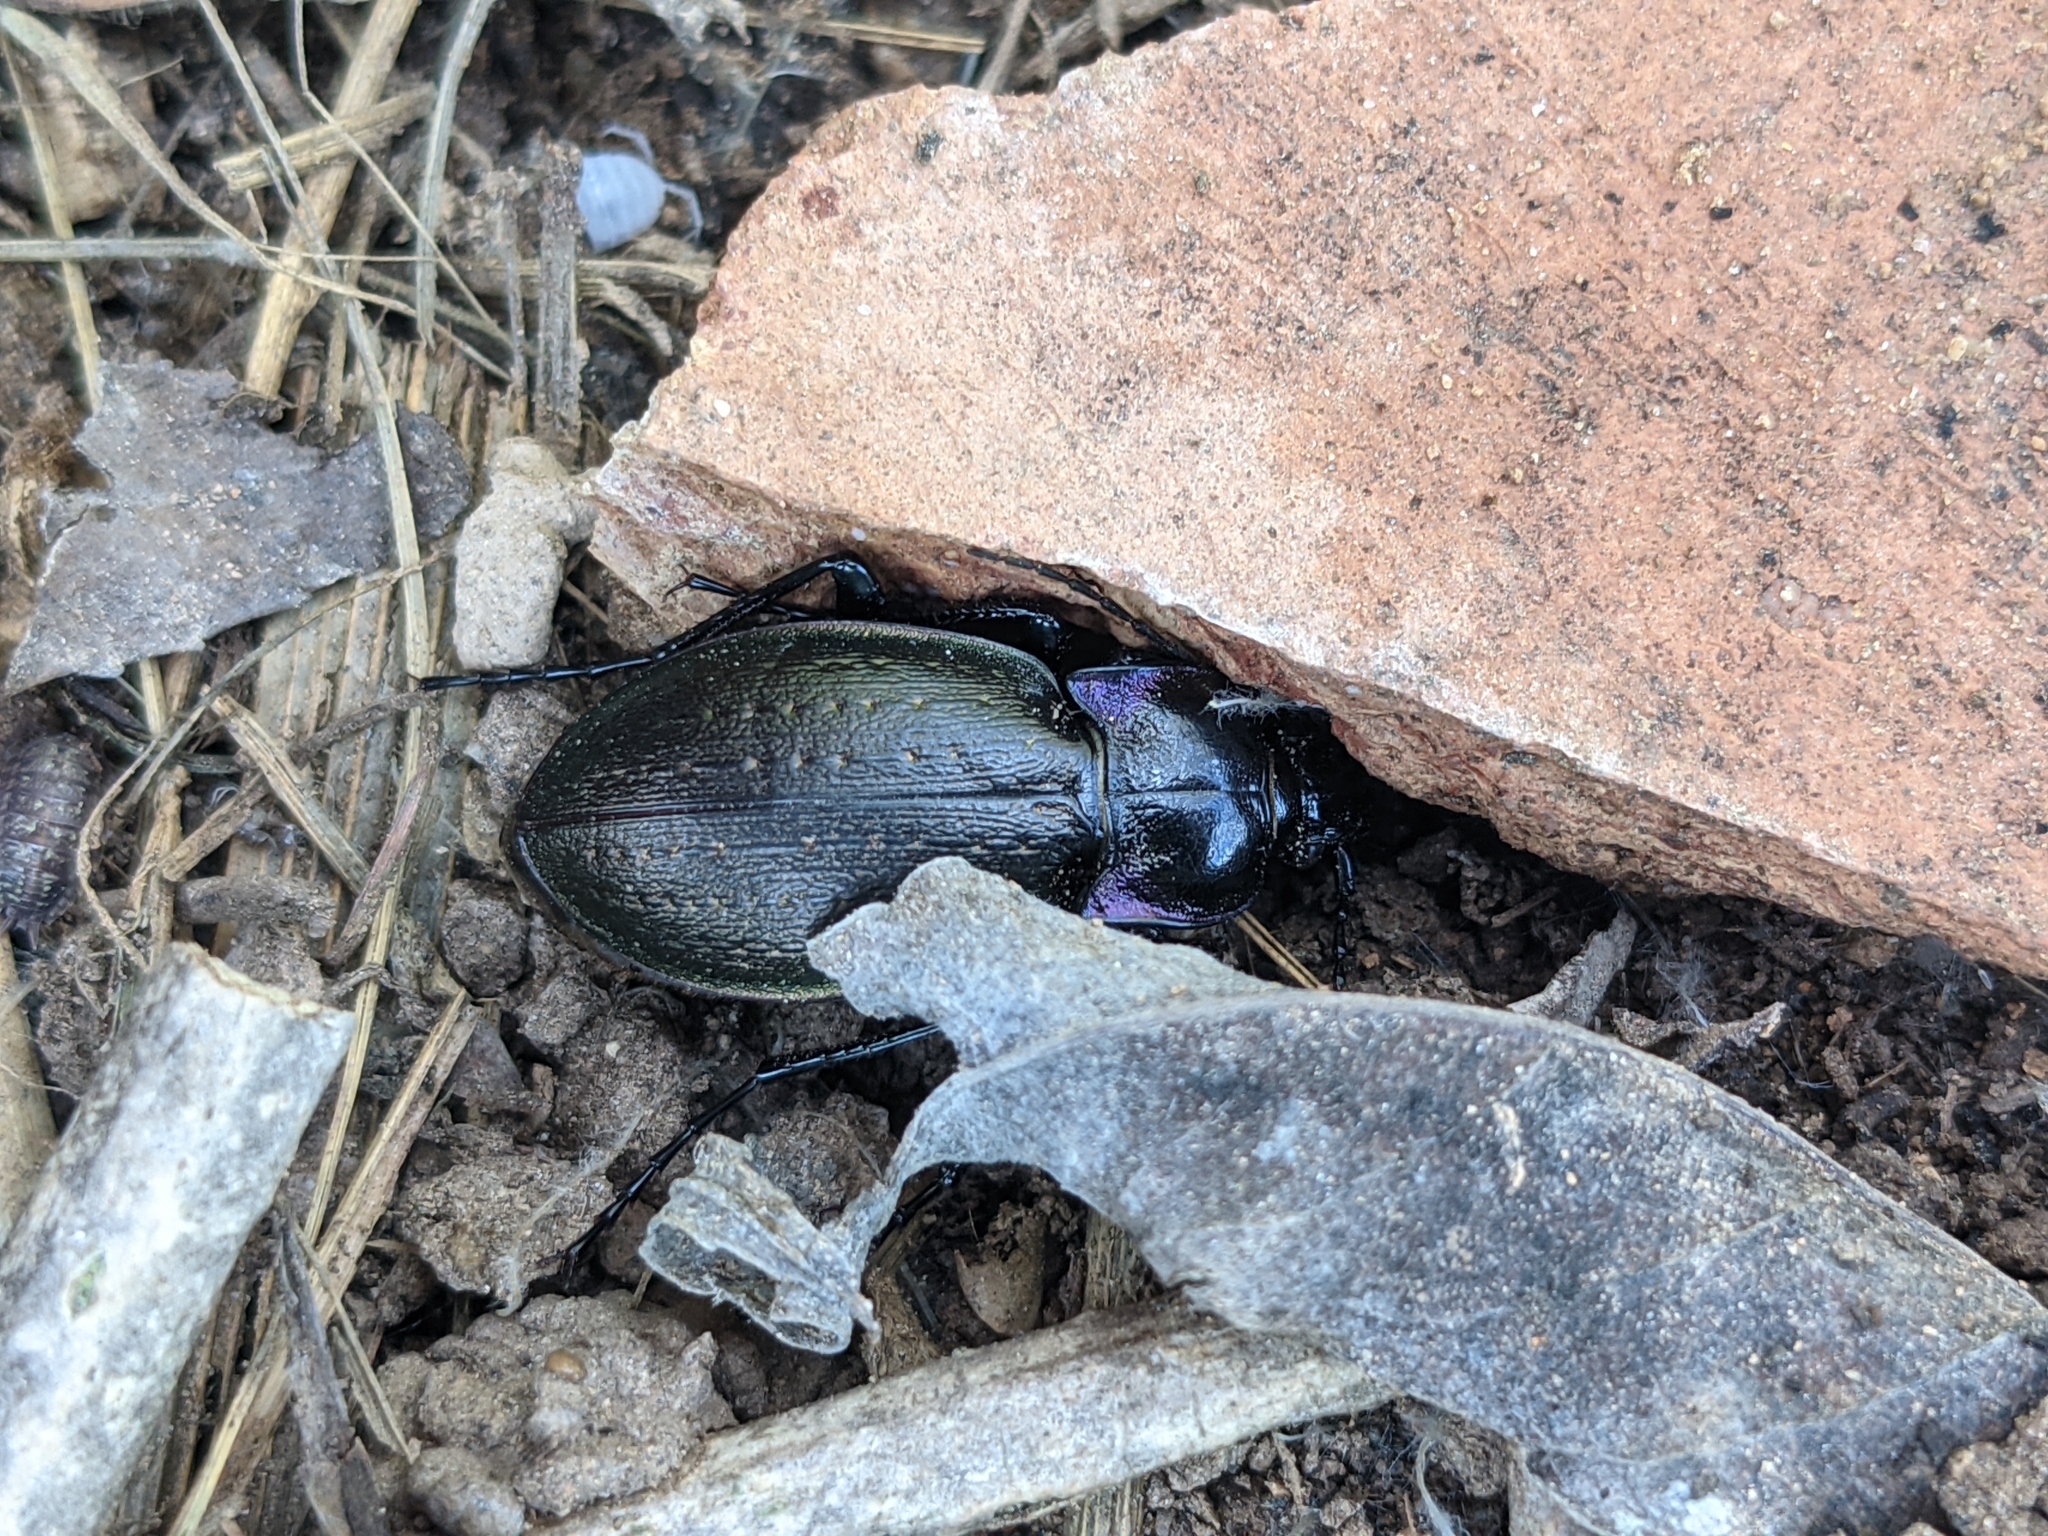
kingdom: Animalia
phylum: Arthropoda
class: Insecta
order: Coleoptera
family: Carabidae
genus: Carabus
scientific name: Carabus nemoralis
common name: European ground beetle
